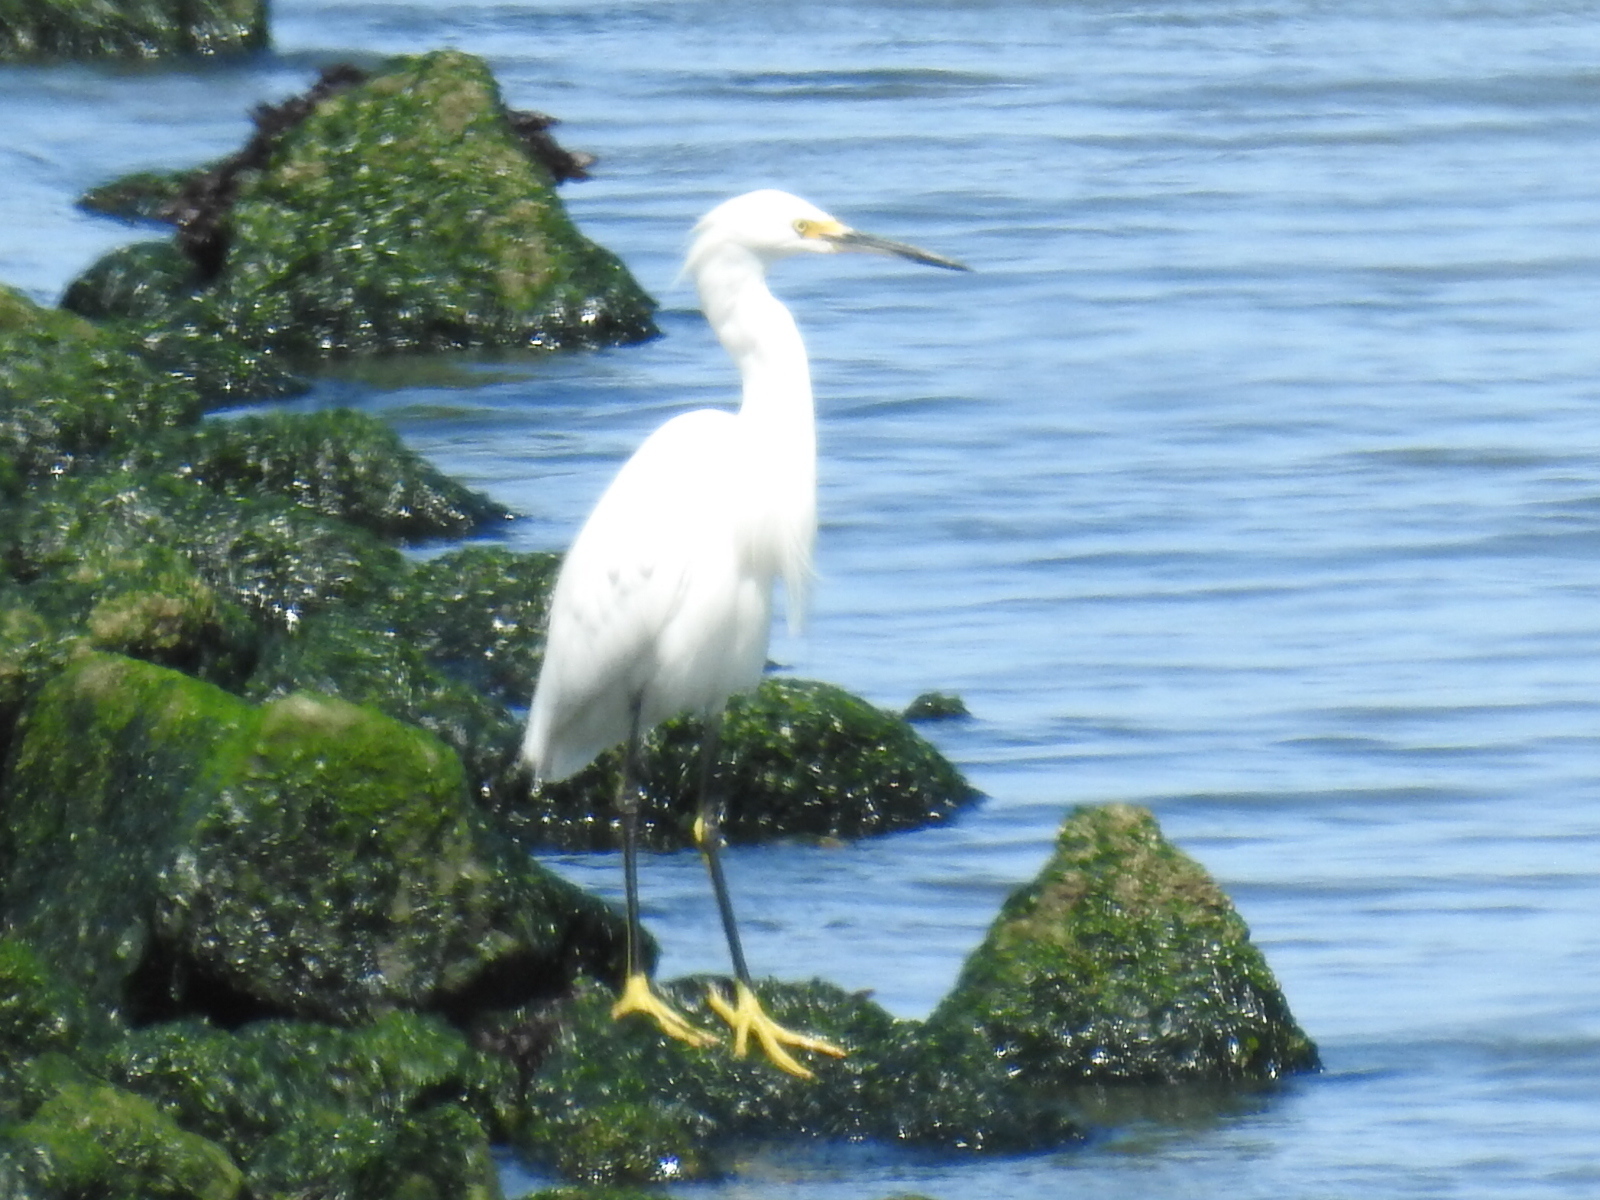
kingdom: Animalia
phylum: Chordata
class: Aves
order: Pelecaniformes
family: Ardeidae
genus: Egretta
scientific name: Egretta thula
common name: Snowy egret
